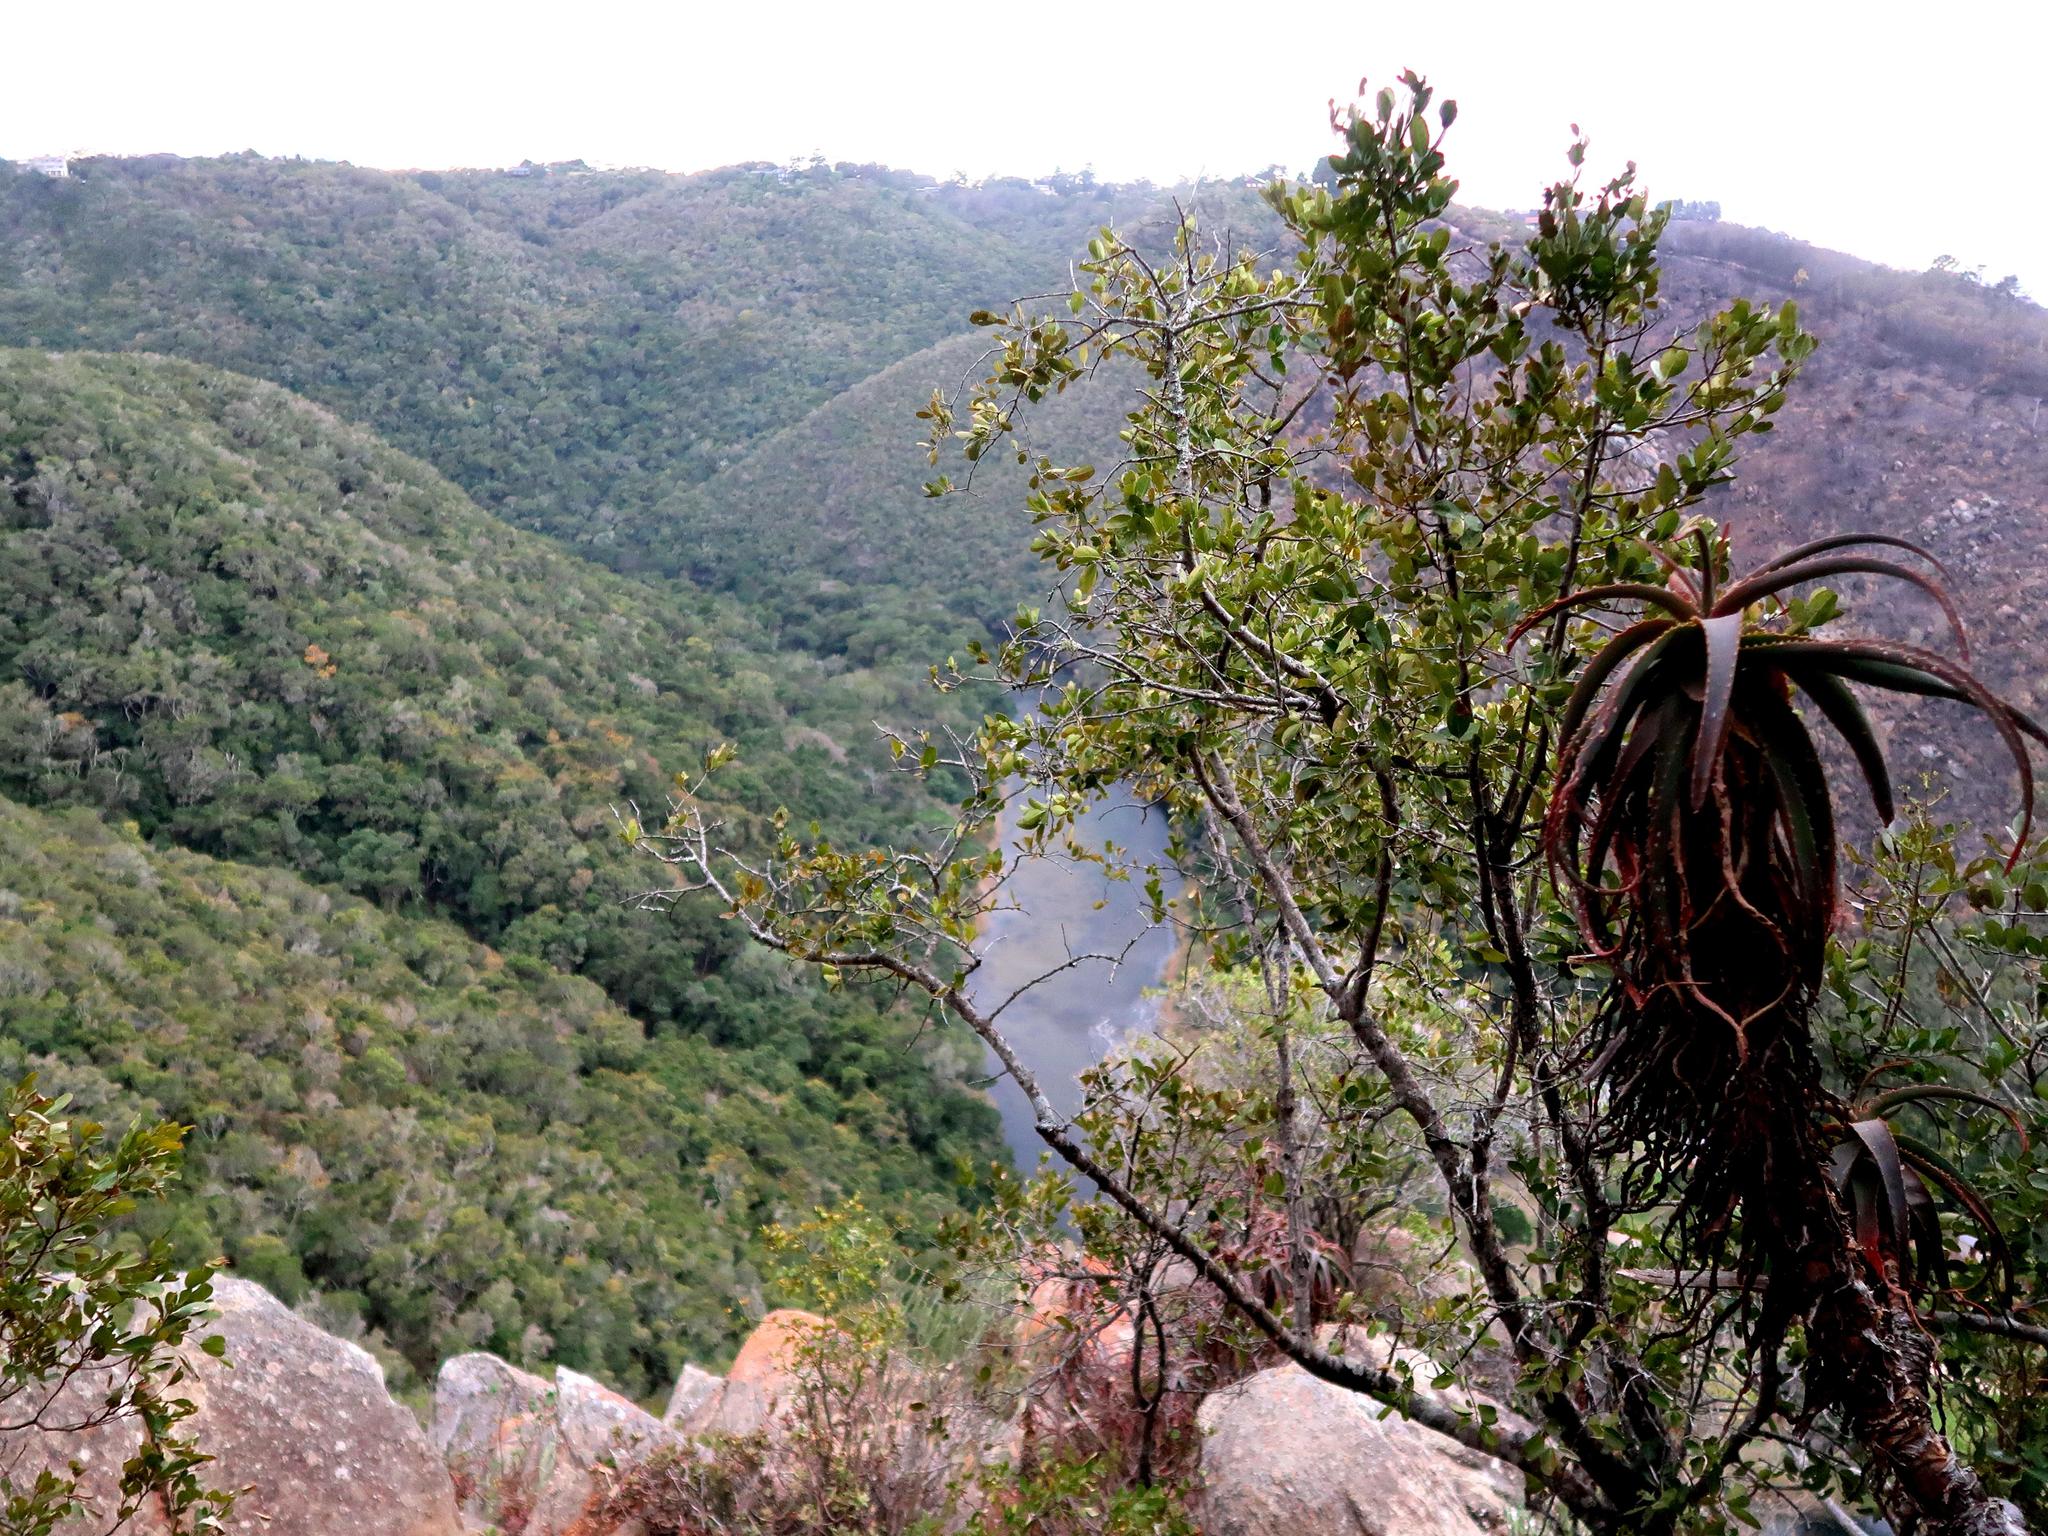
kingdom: Plantae
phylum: Tracheophyta
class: Liliopsida
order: Asparagales
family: Asphodelaceae
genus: Aloe
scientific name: Aloe arborescens
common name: Candelabra aloe
